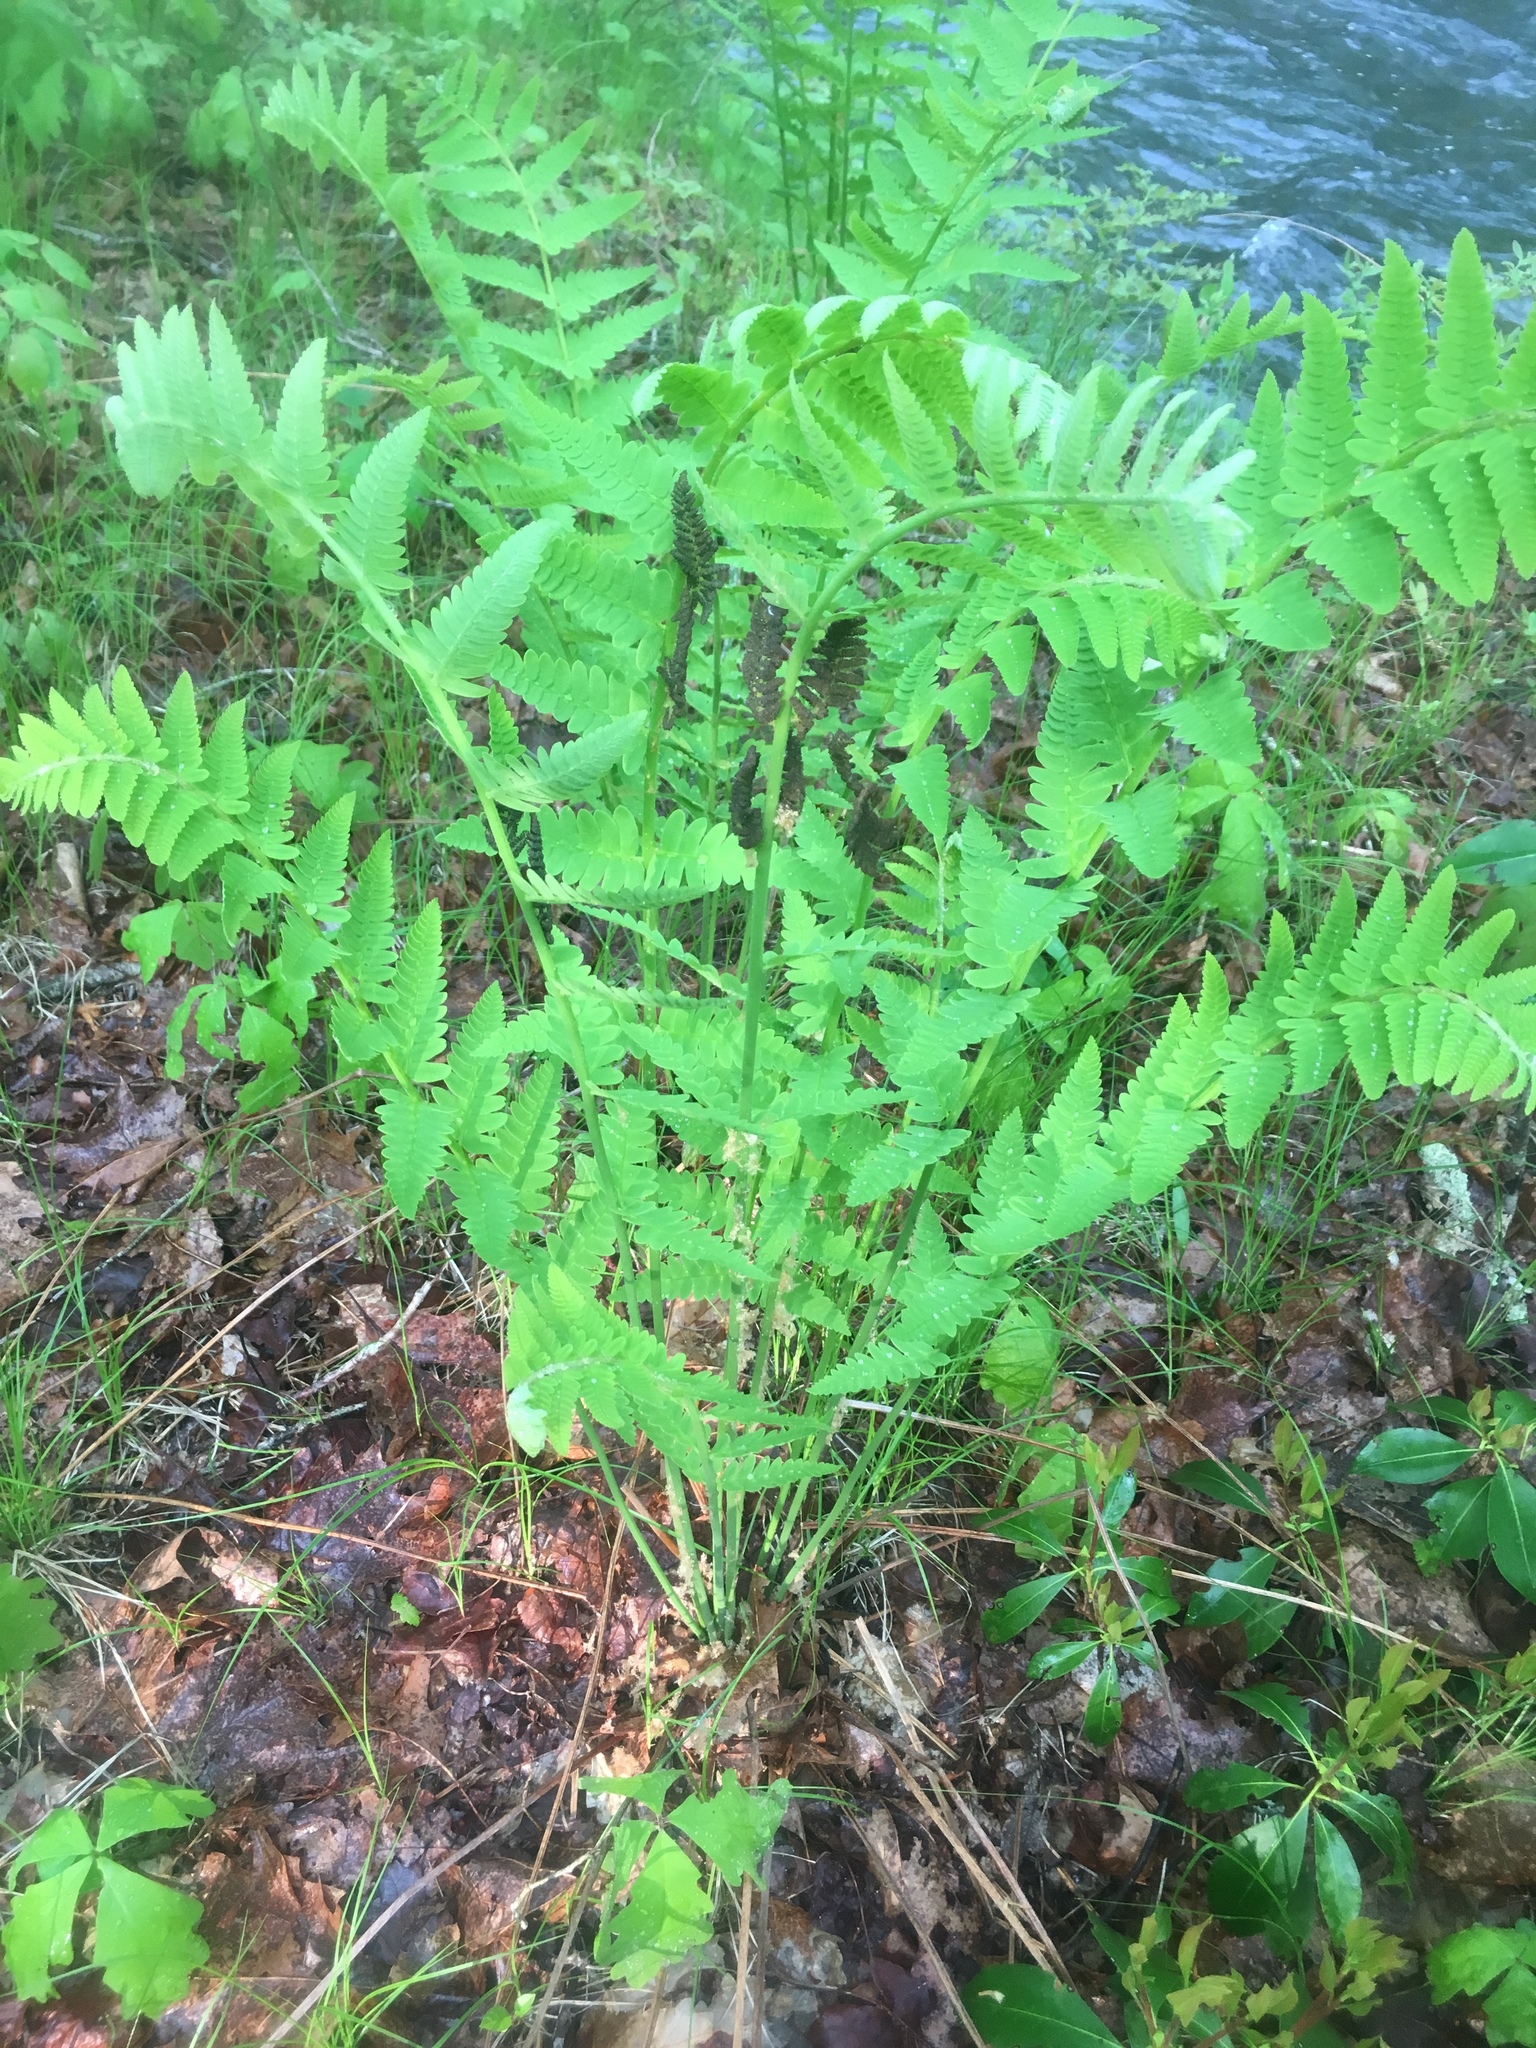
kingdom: Plantae
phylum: Tracheophyta
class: Polypodiopsida
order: Osmundales
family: Osmundaceae
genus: Claytosmunda
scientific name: Claytosmunda claytoniana
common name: Clayton's fern
